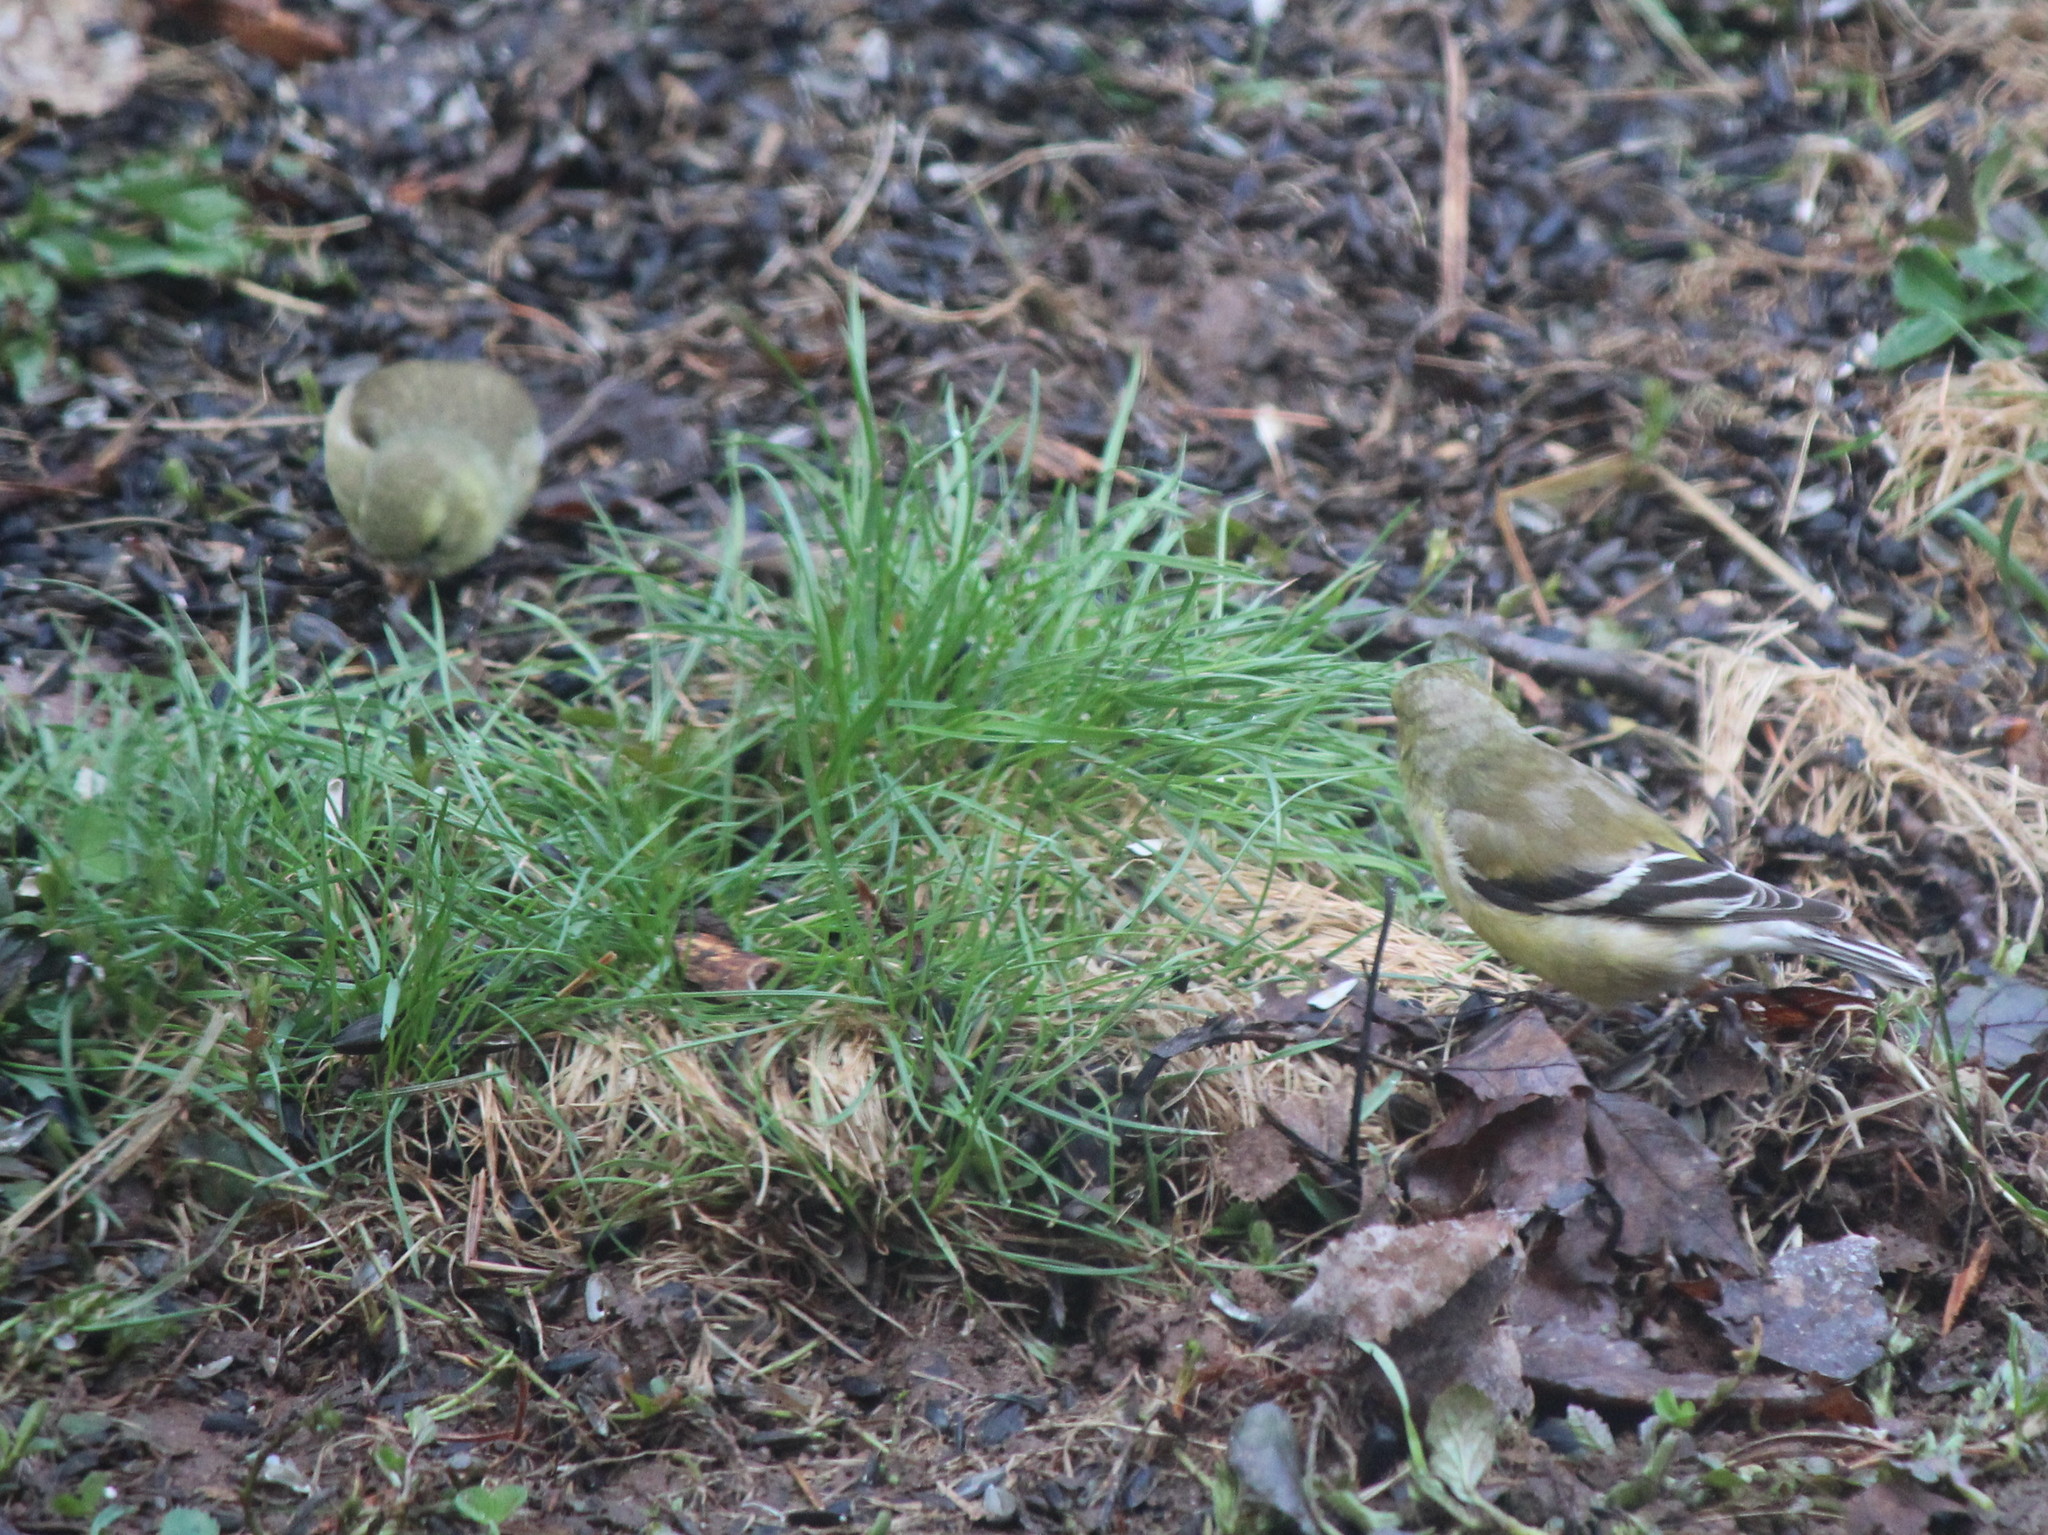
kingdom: Animalia
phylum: Chordata
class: Aves
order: Passeriformes
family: Fringillidae
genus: Spinus
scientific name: Spinus tristis
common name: American goldfinch
